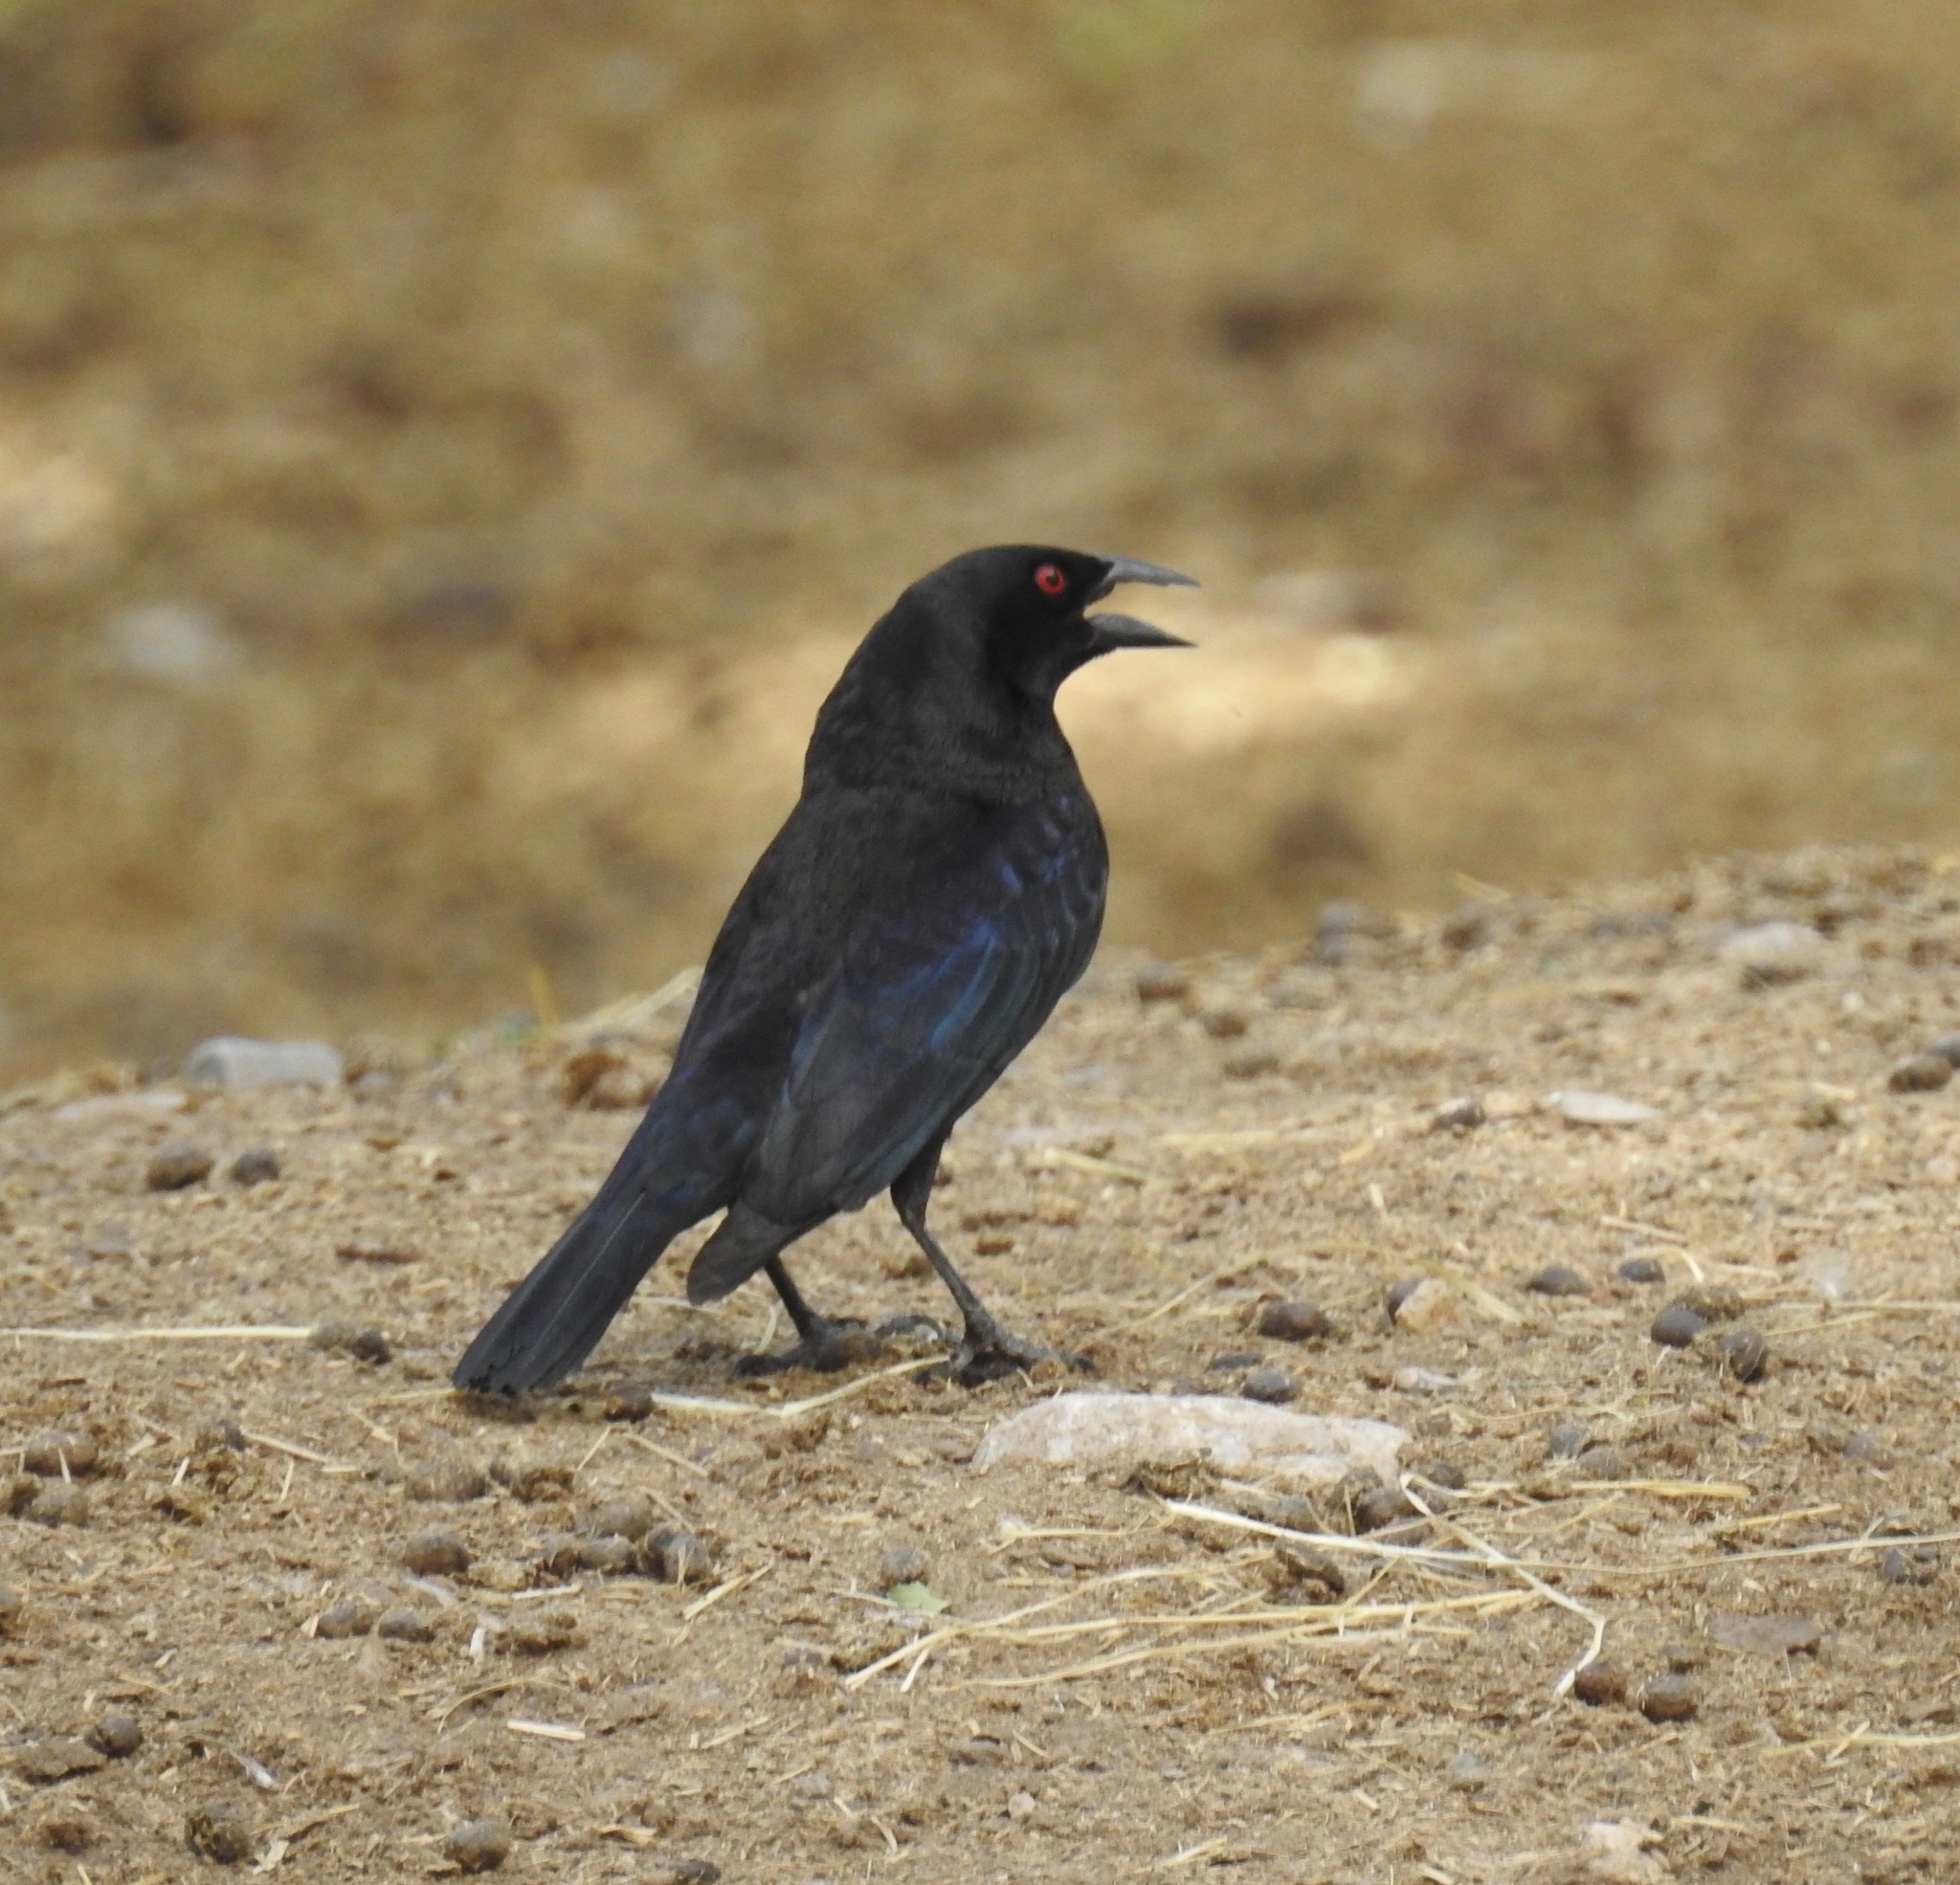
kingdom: Animalia
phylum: Chordata
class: Aves
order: Passeriformes
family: Icteridae
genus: Molothrus
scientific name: Molothrus aeneus
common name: Bronzed cowbird
